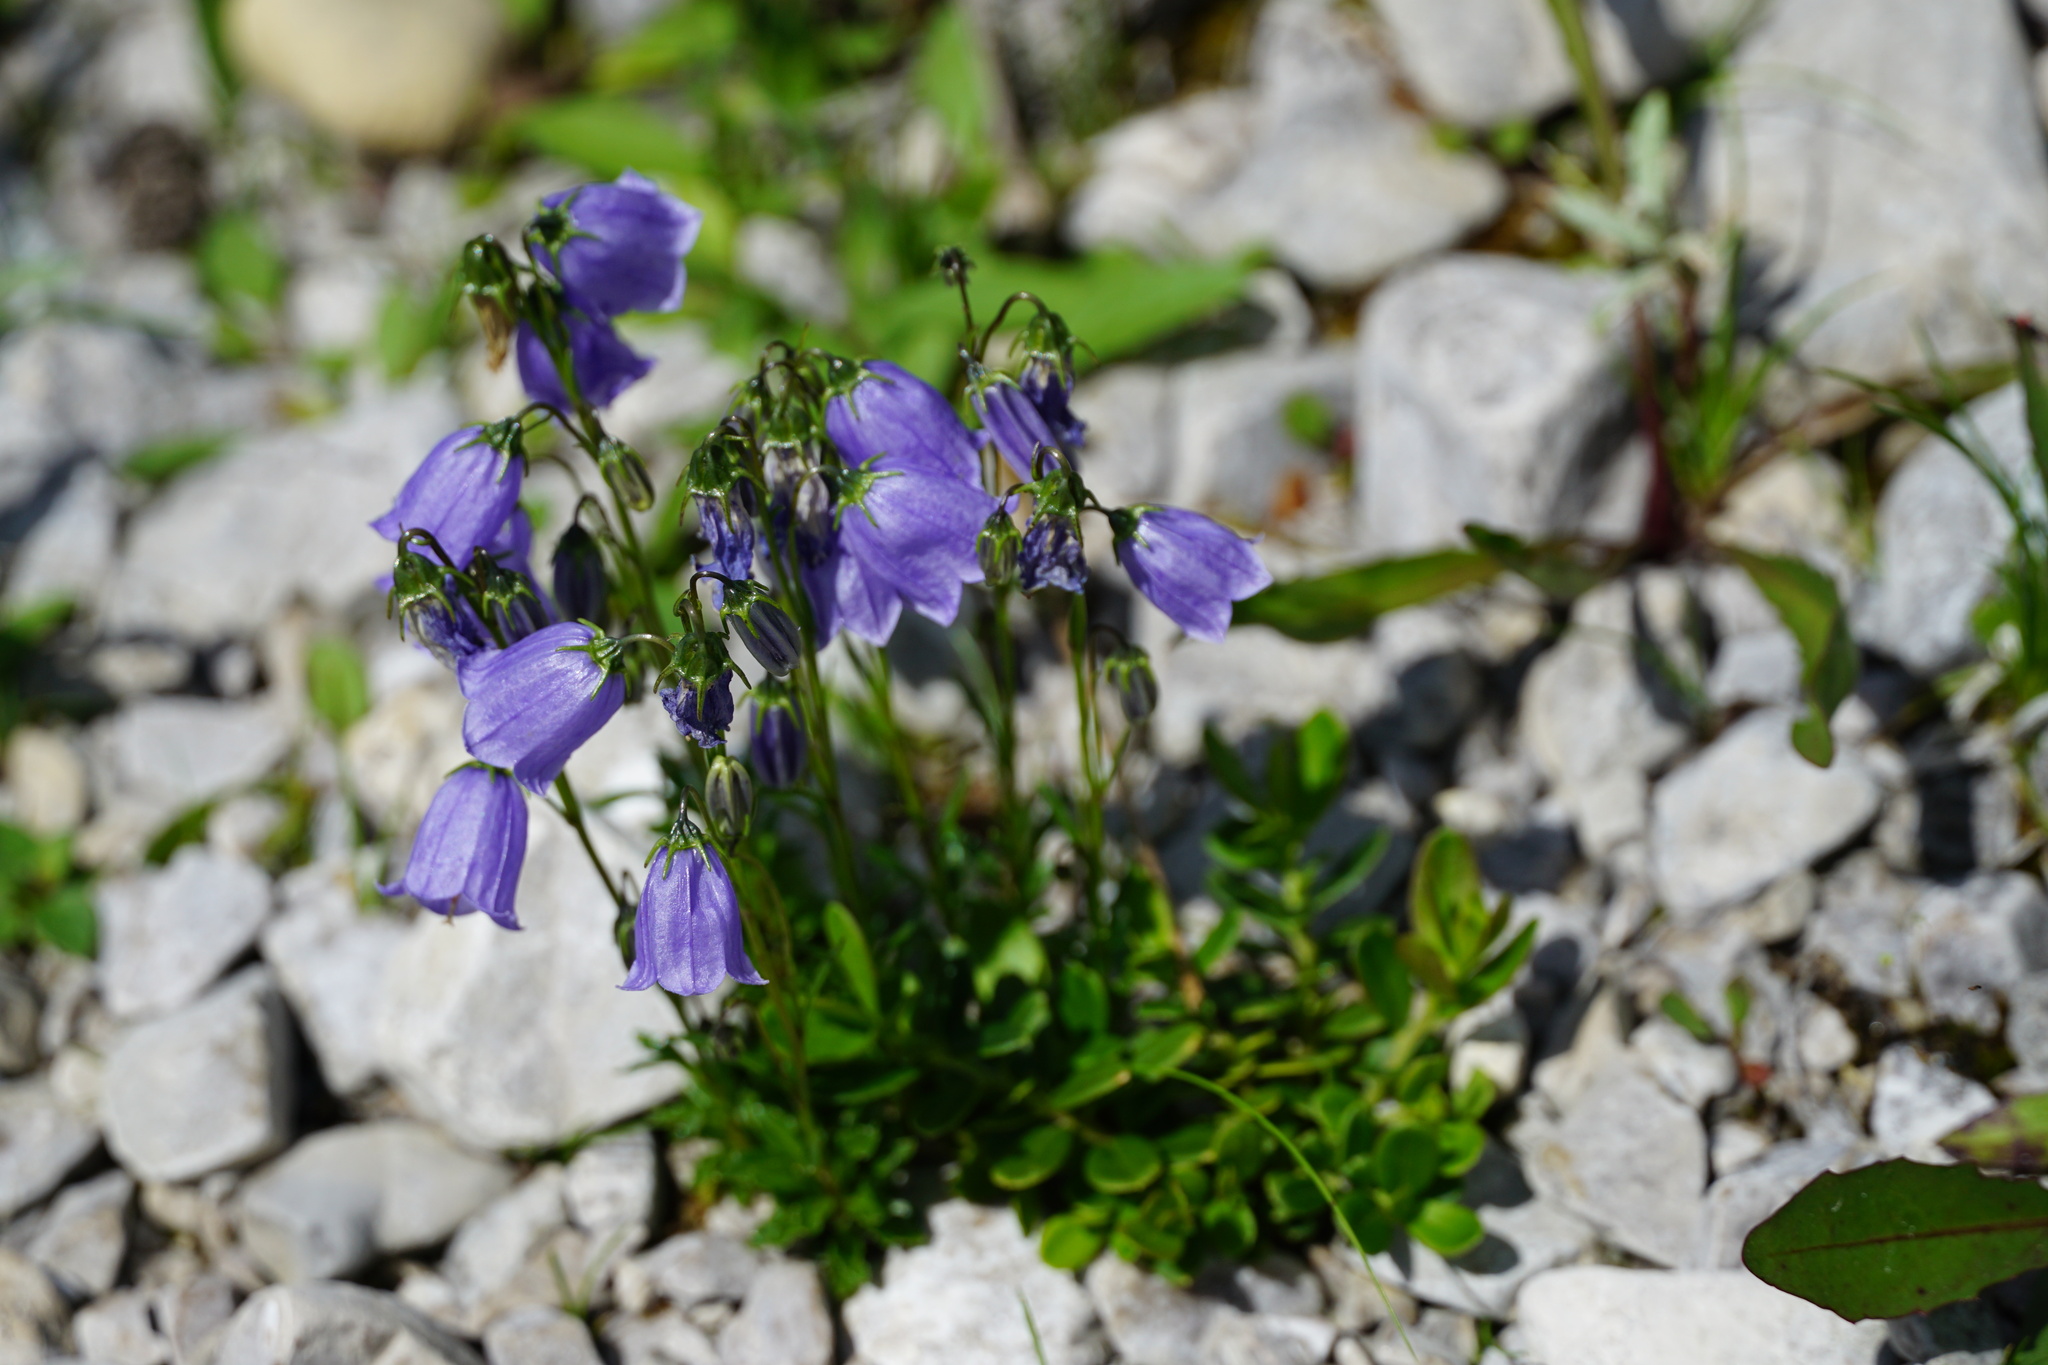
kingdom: Plantae
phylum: Tracheophyta
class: Magnoliopsida
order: Asterales
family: Campanulaceae
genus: Campanula
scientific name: Campanula cochleariifolia
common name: Fairies'-thimbles
